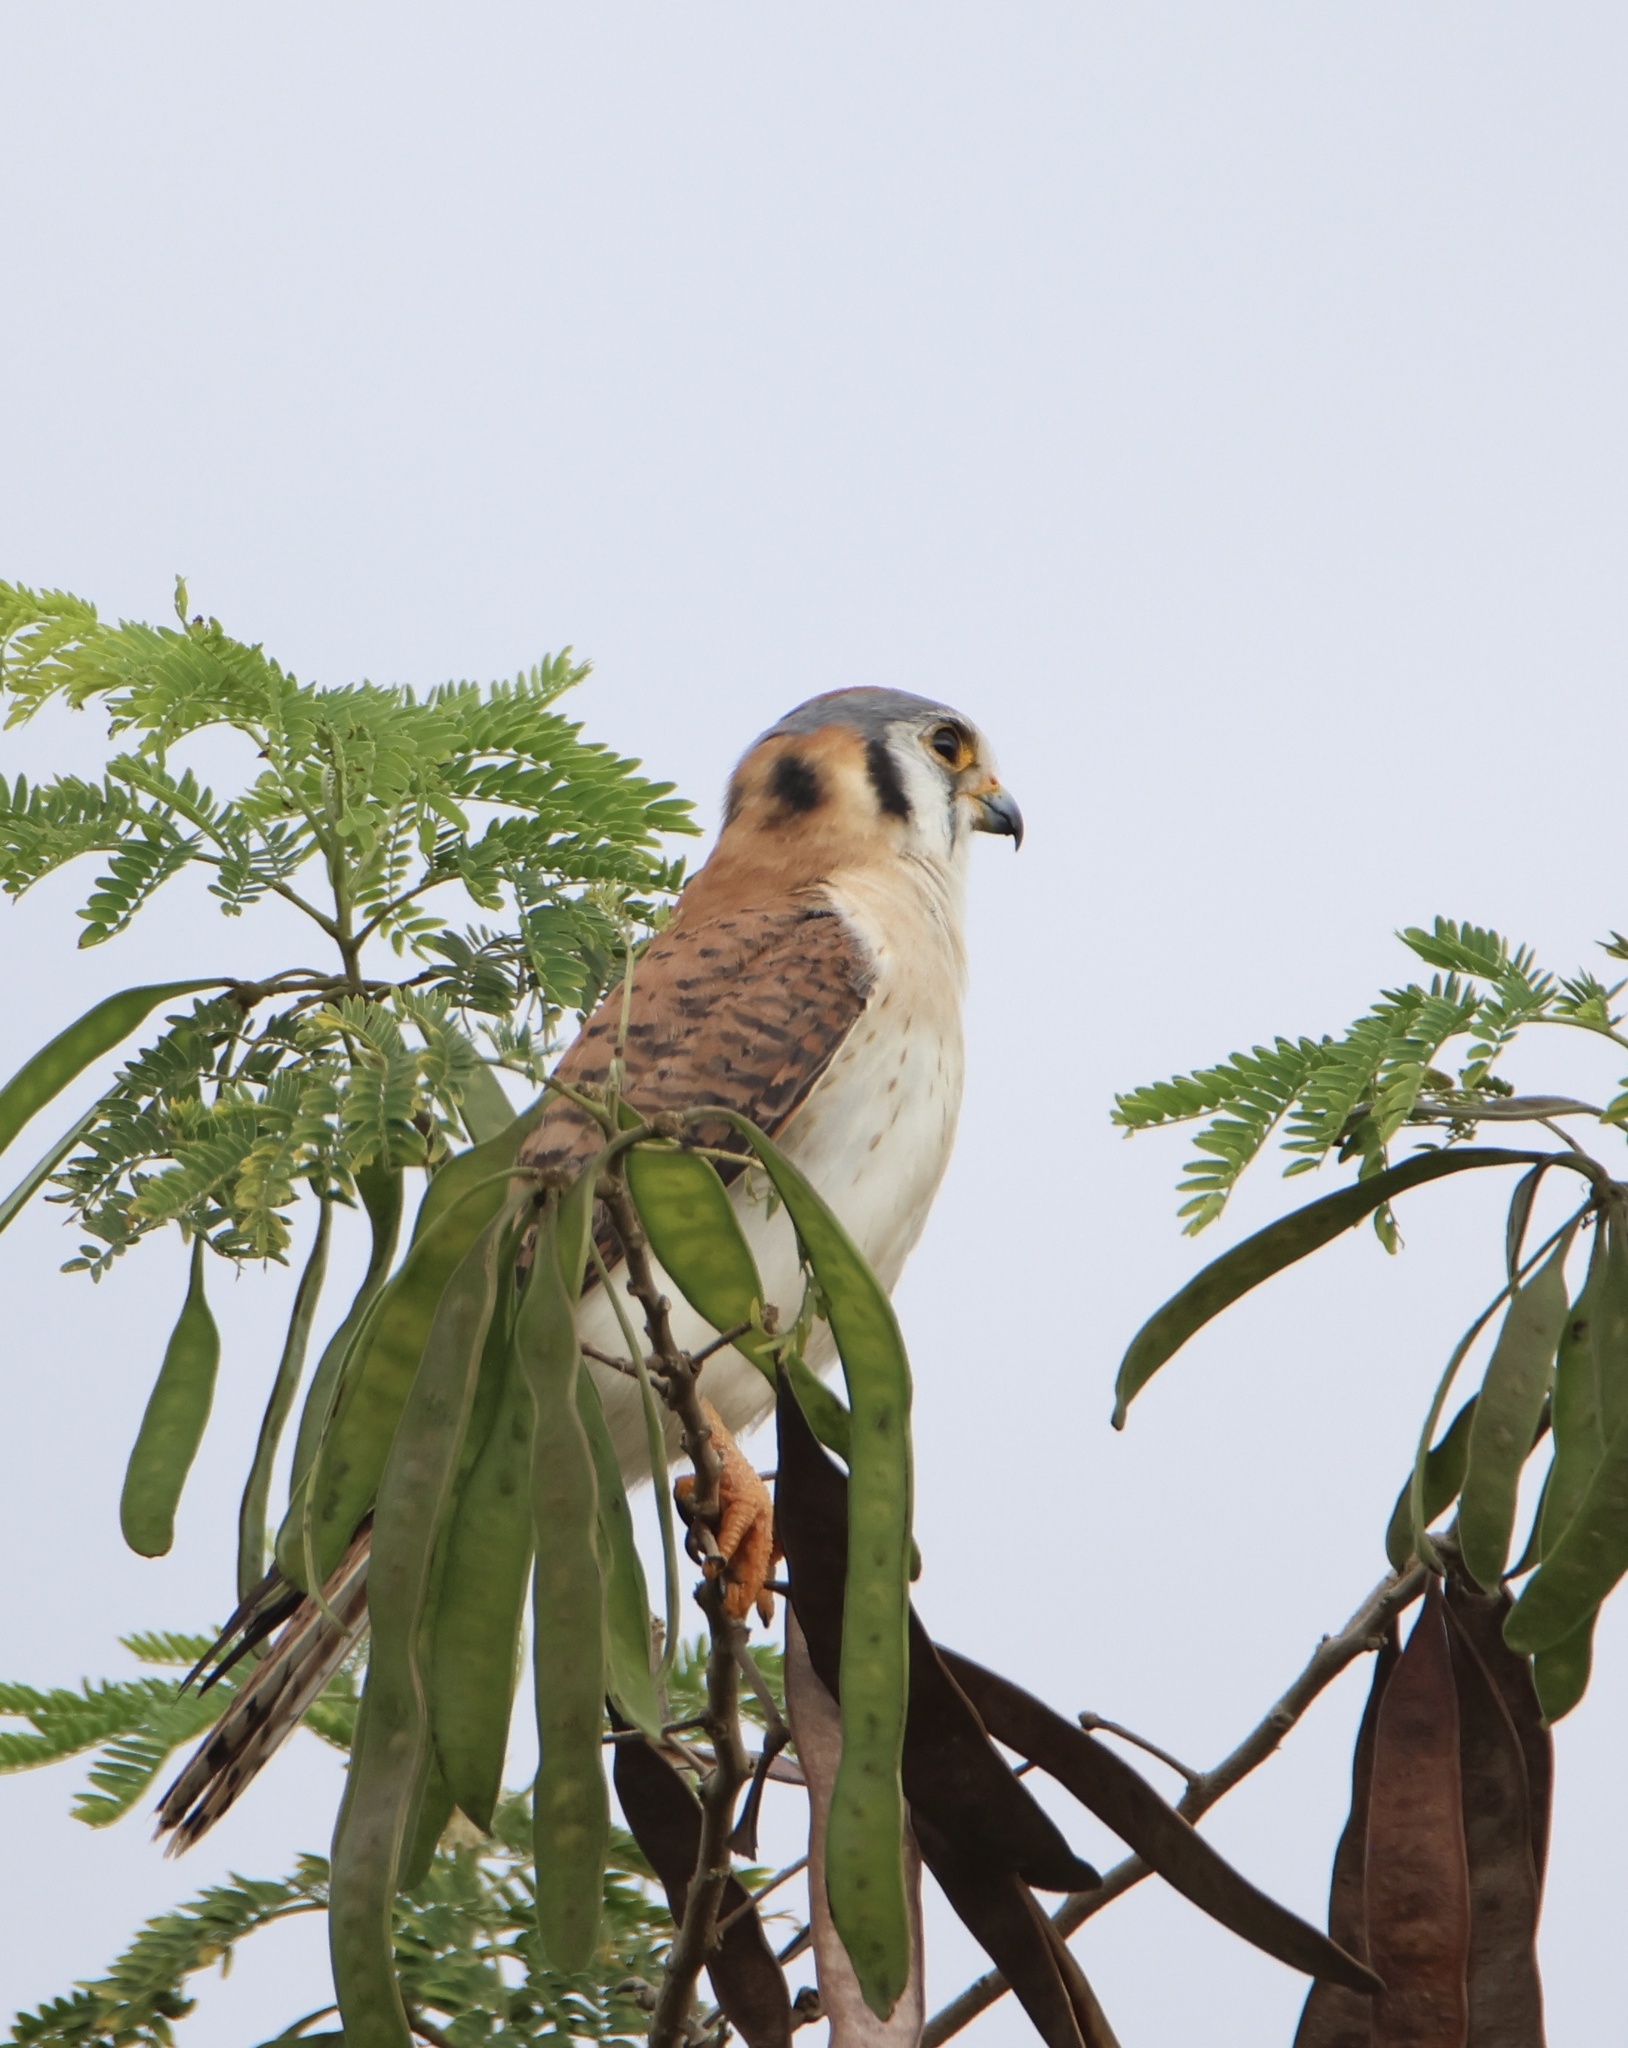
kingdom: Animalia
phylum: Chordata
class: Aves
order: Falconiformes
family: Falconidae
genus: Falco
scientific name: Falco sparverius
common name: American kestrel
